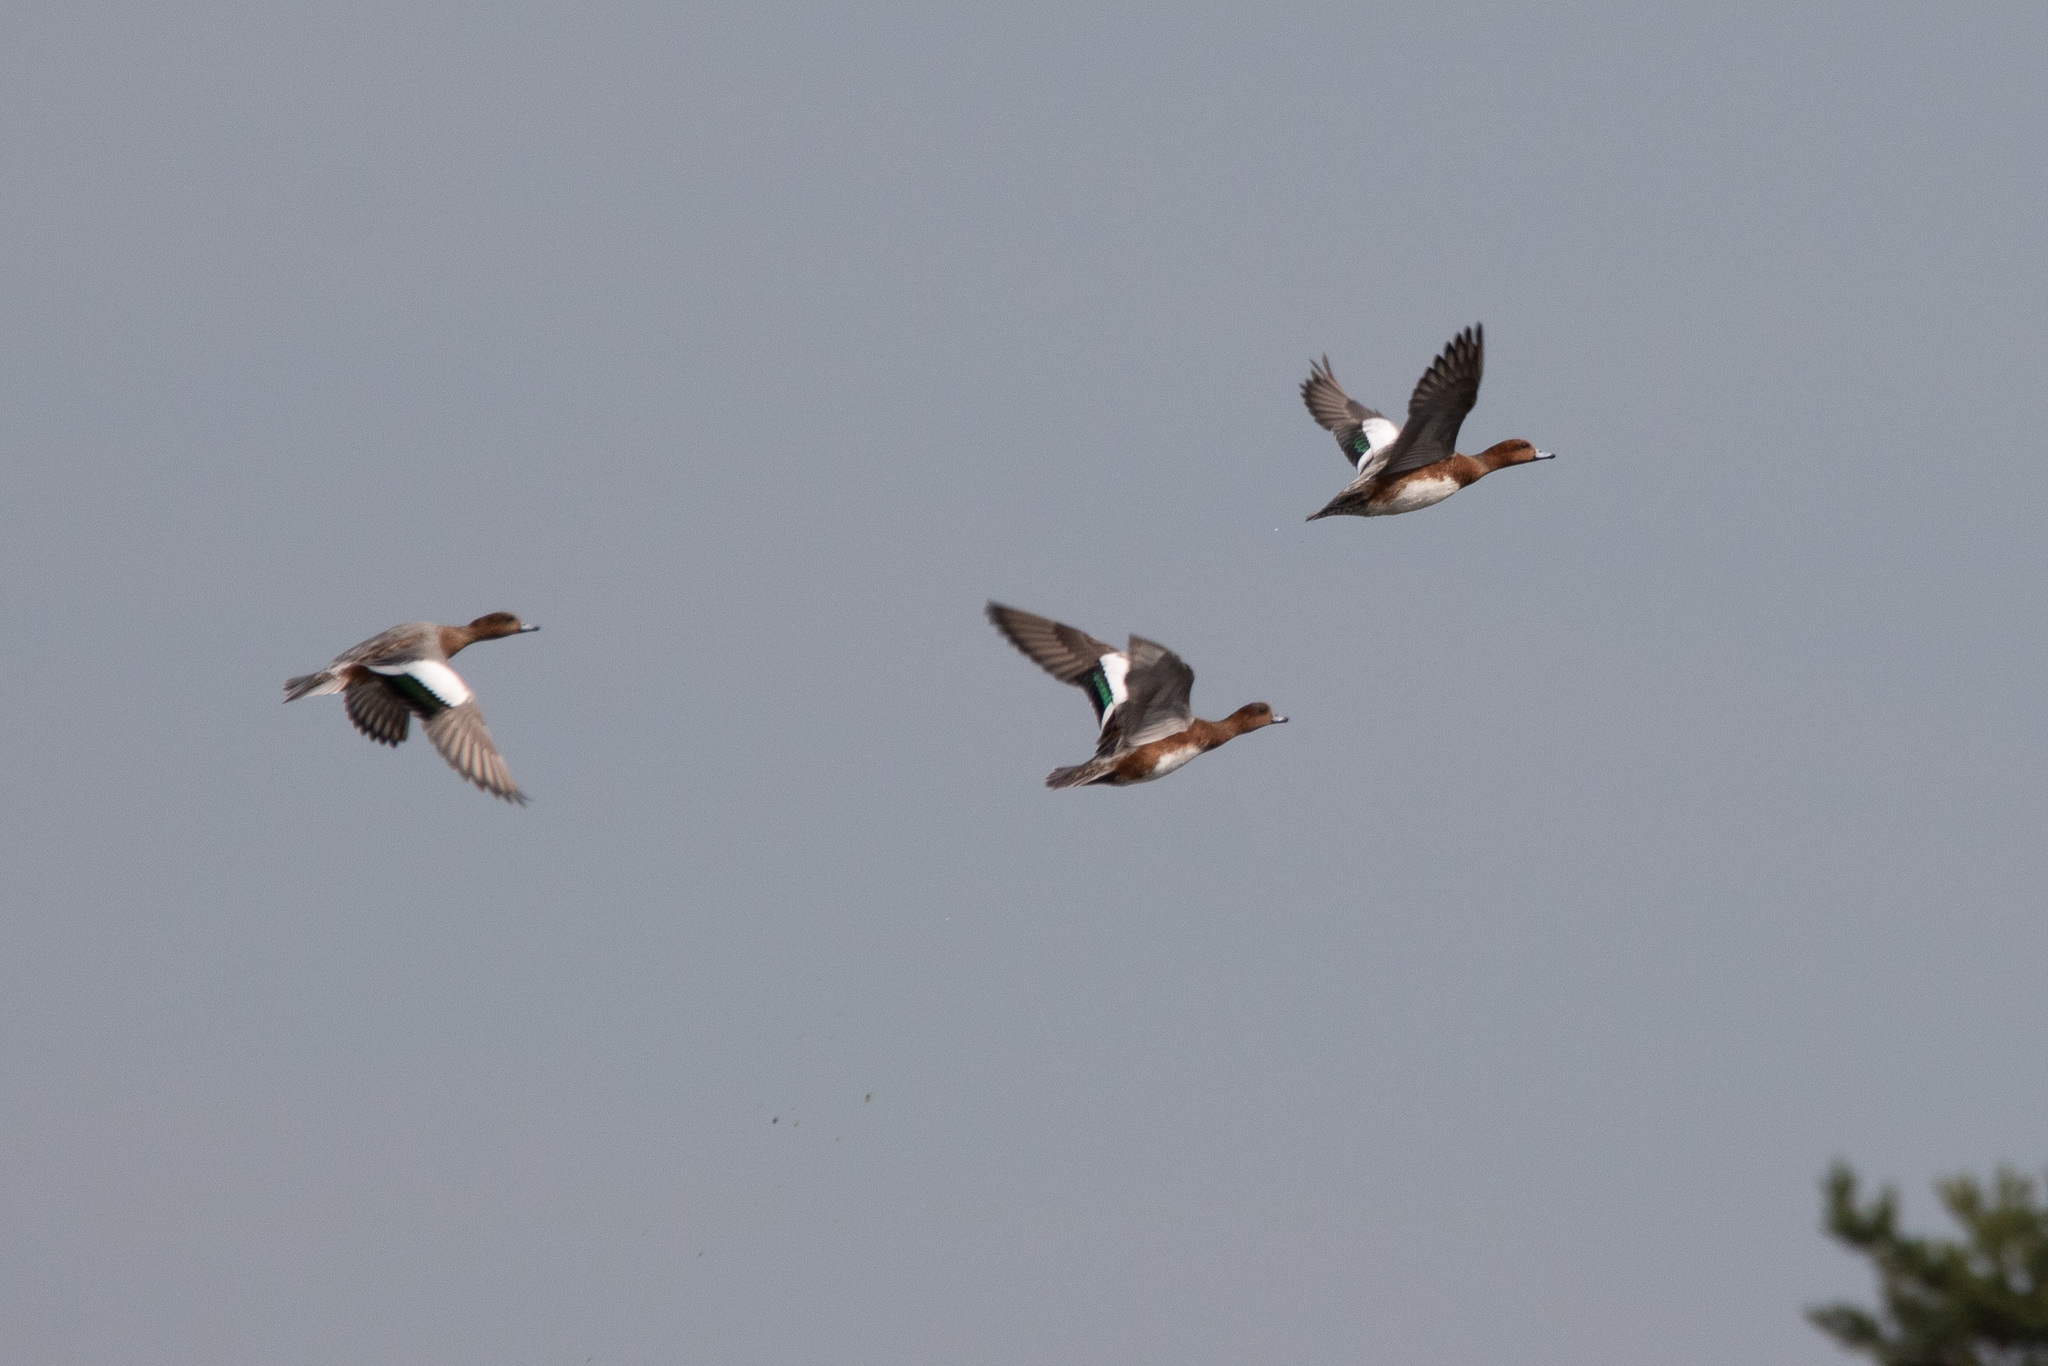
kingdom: Animalia
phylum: Chordata
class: Aves
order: Anseriformes
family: Anatidae
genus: Mareca
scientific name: Mareca penelope
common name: Eurasian wigeon
